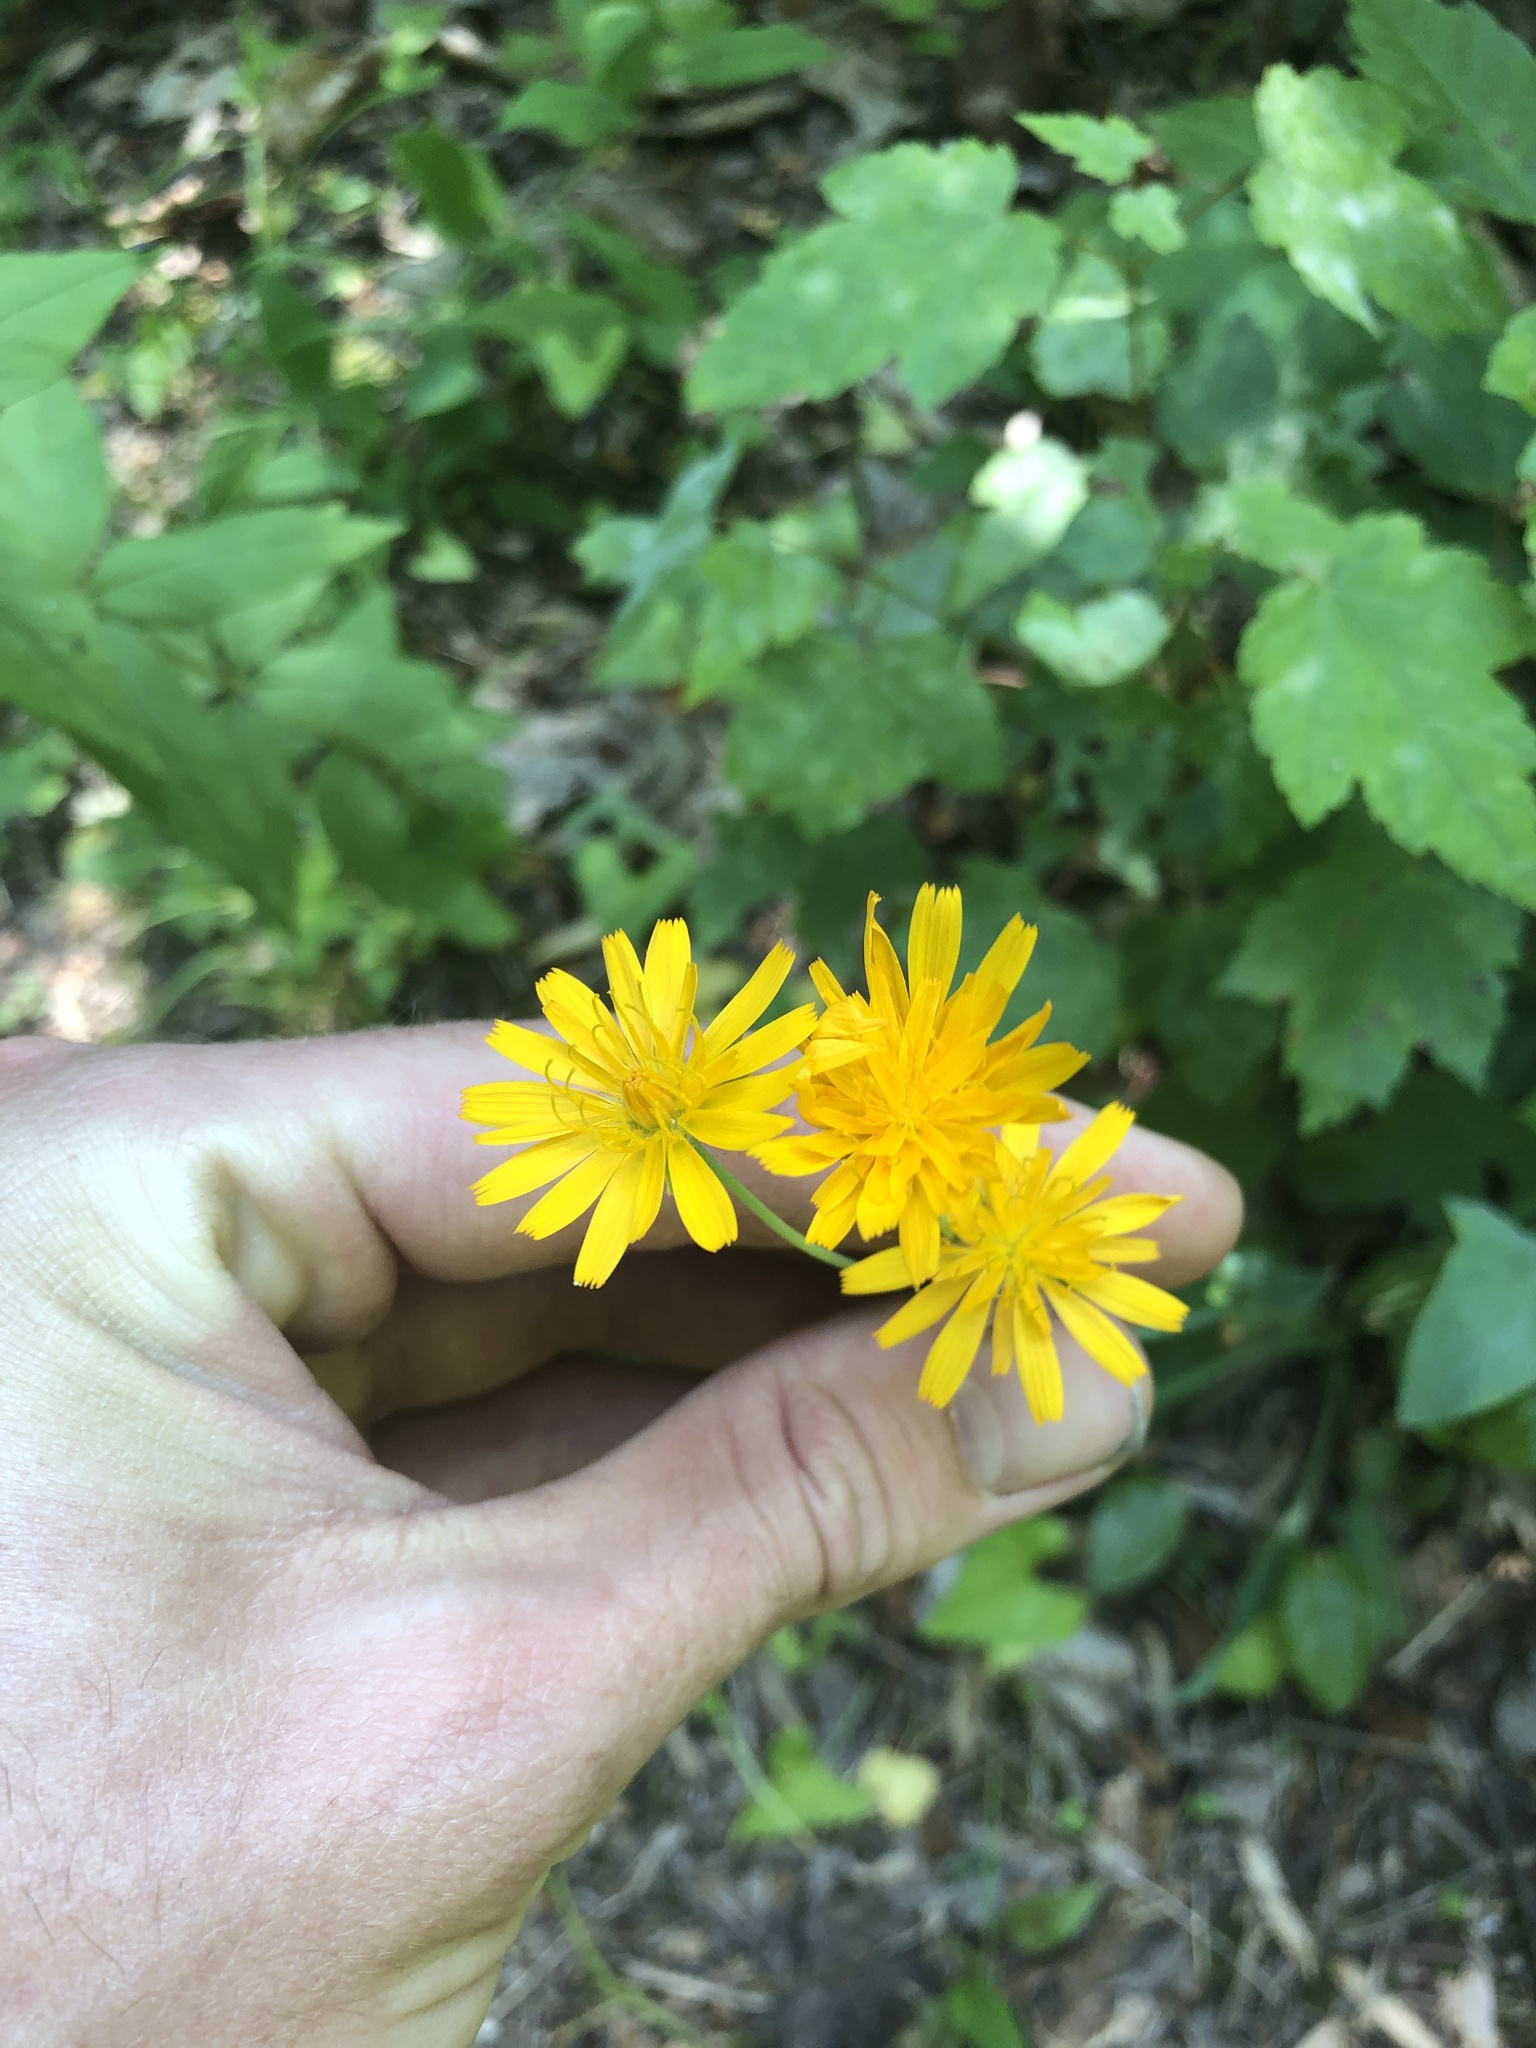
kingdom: Plantae
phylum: Tracheophyta
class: Magnoliopsida
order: Asterales
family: Asteraceae
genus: Krigia
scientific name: Krigia biflora
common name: Orange dwarf-dandelion
